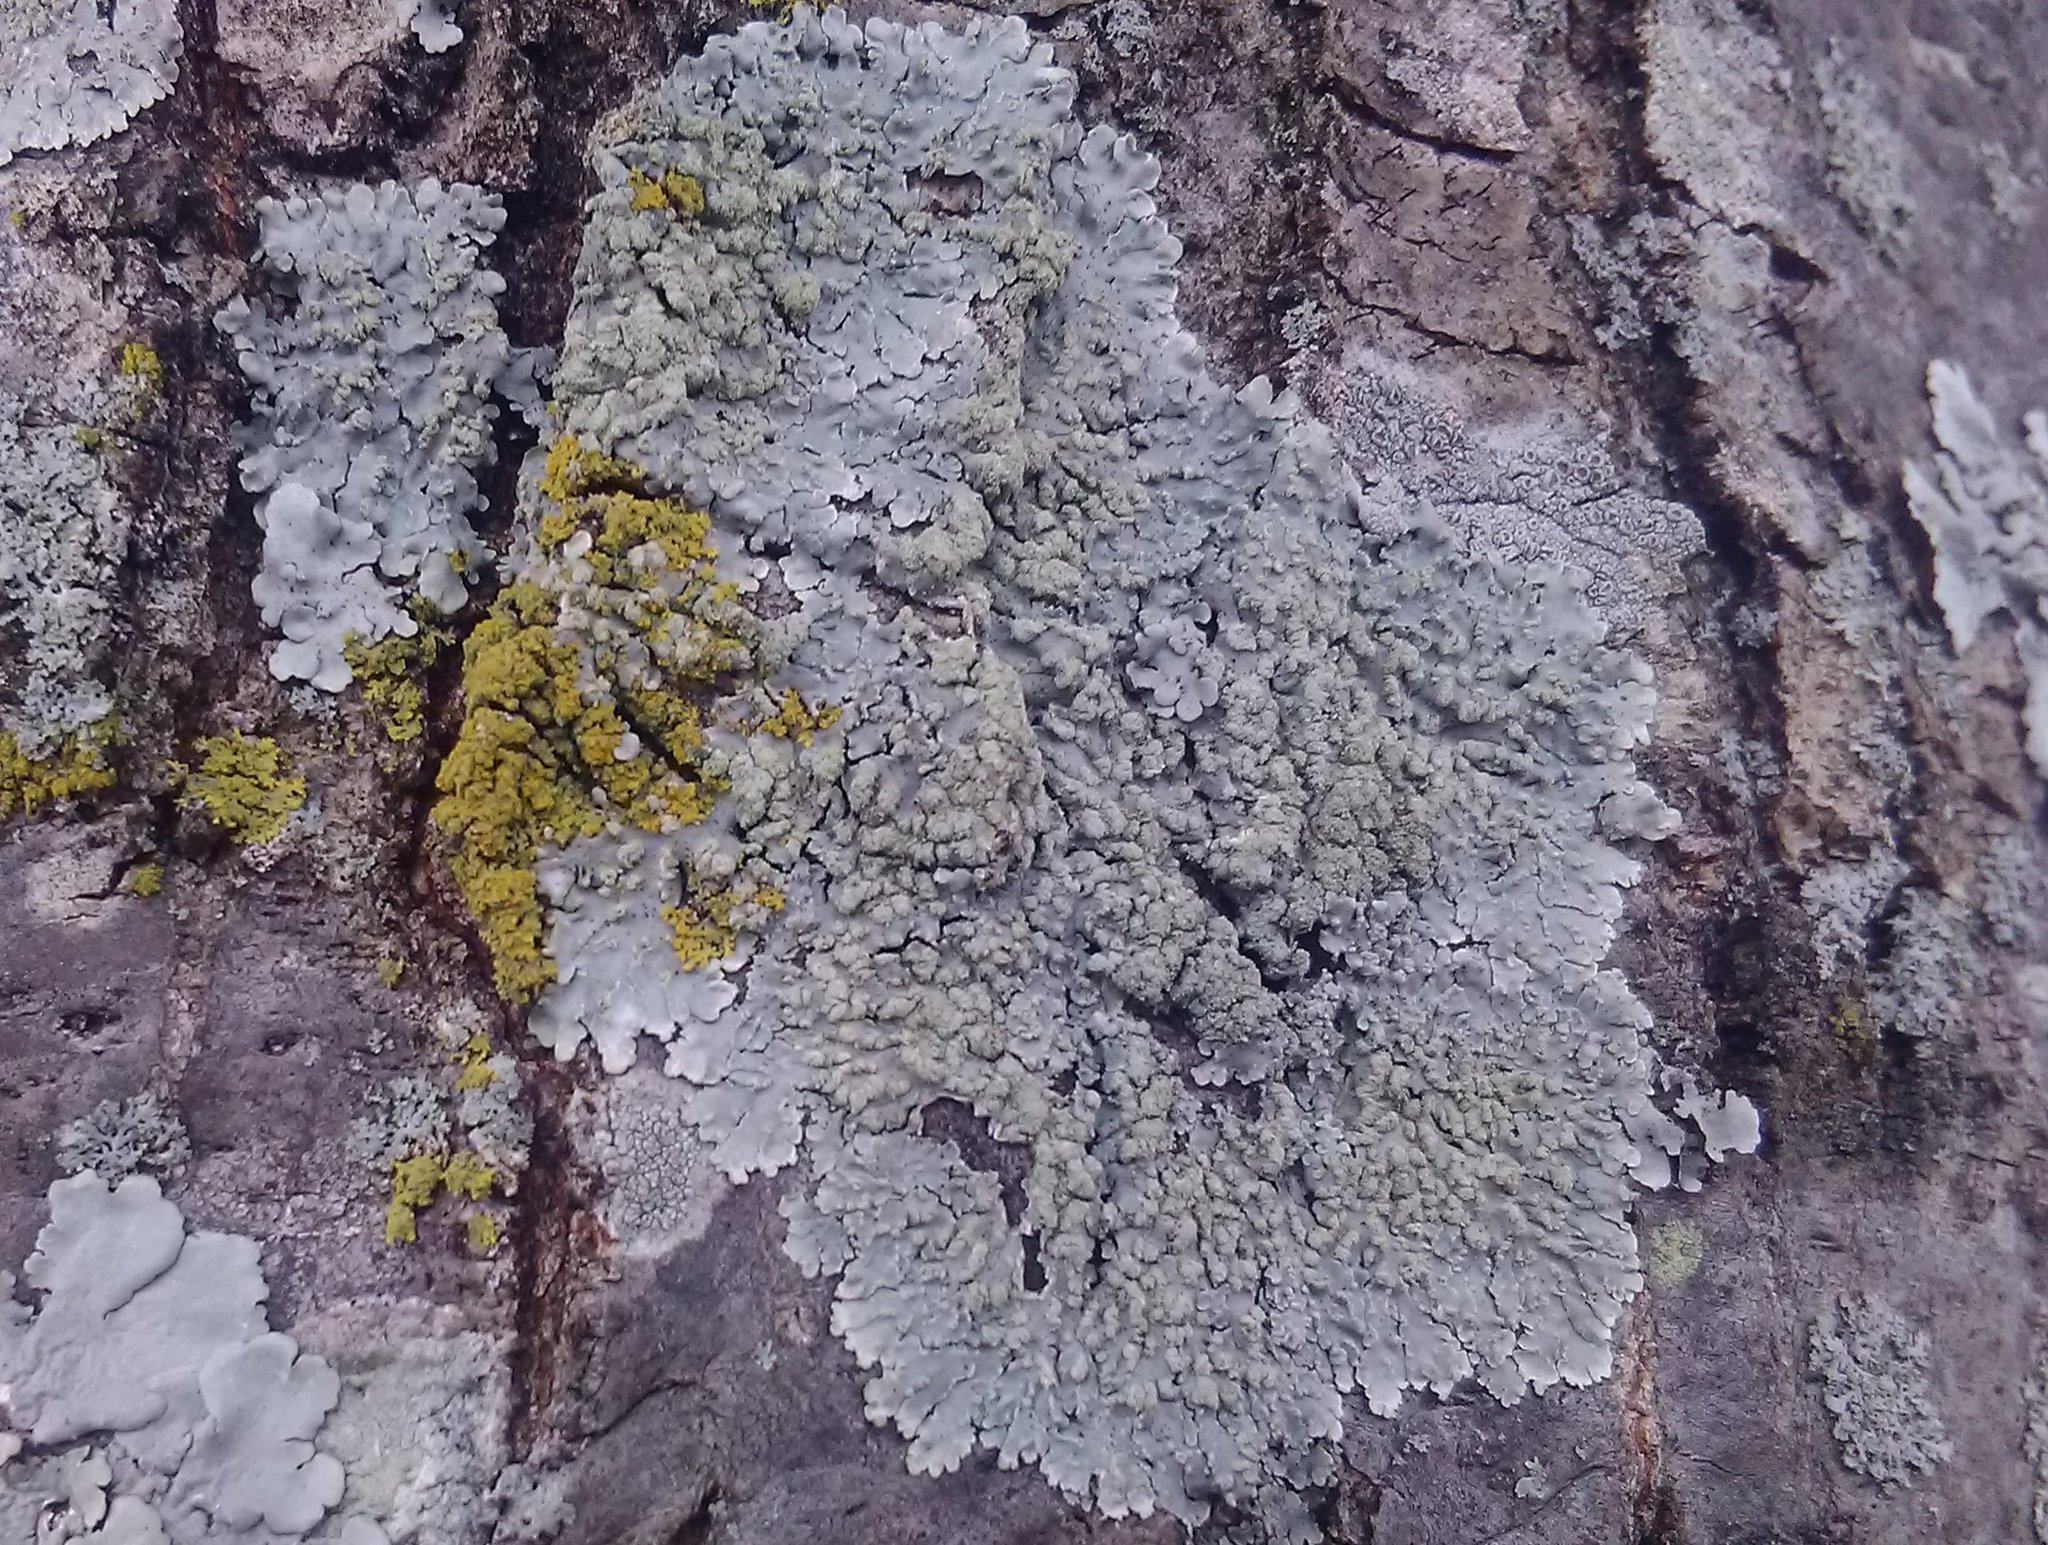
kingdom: Fungi
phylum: Ascomycota
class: Lecanoromycetes
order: Caliciales
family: Caliciaceae
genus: Pyxine
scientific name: Pyxine sorediata
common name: Mustard lichen
